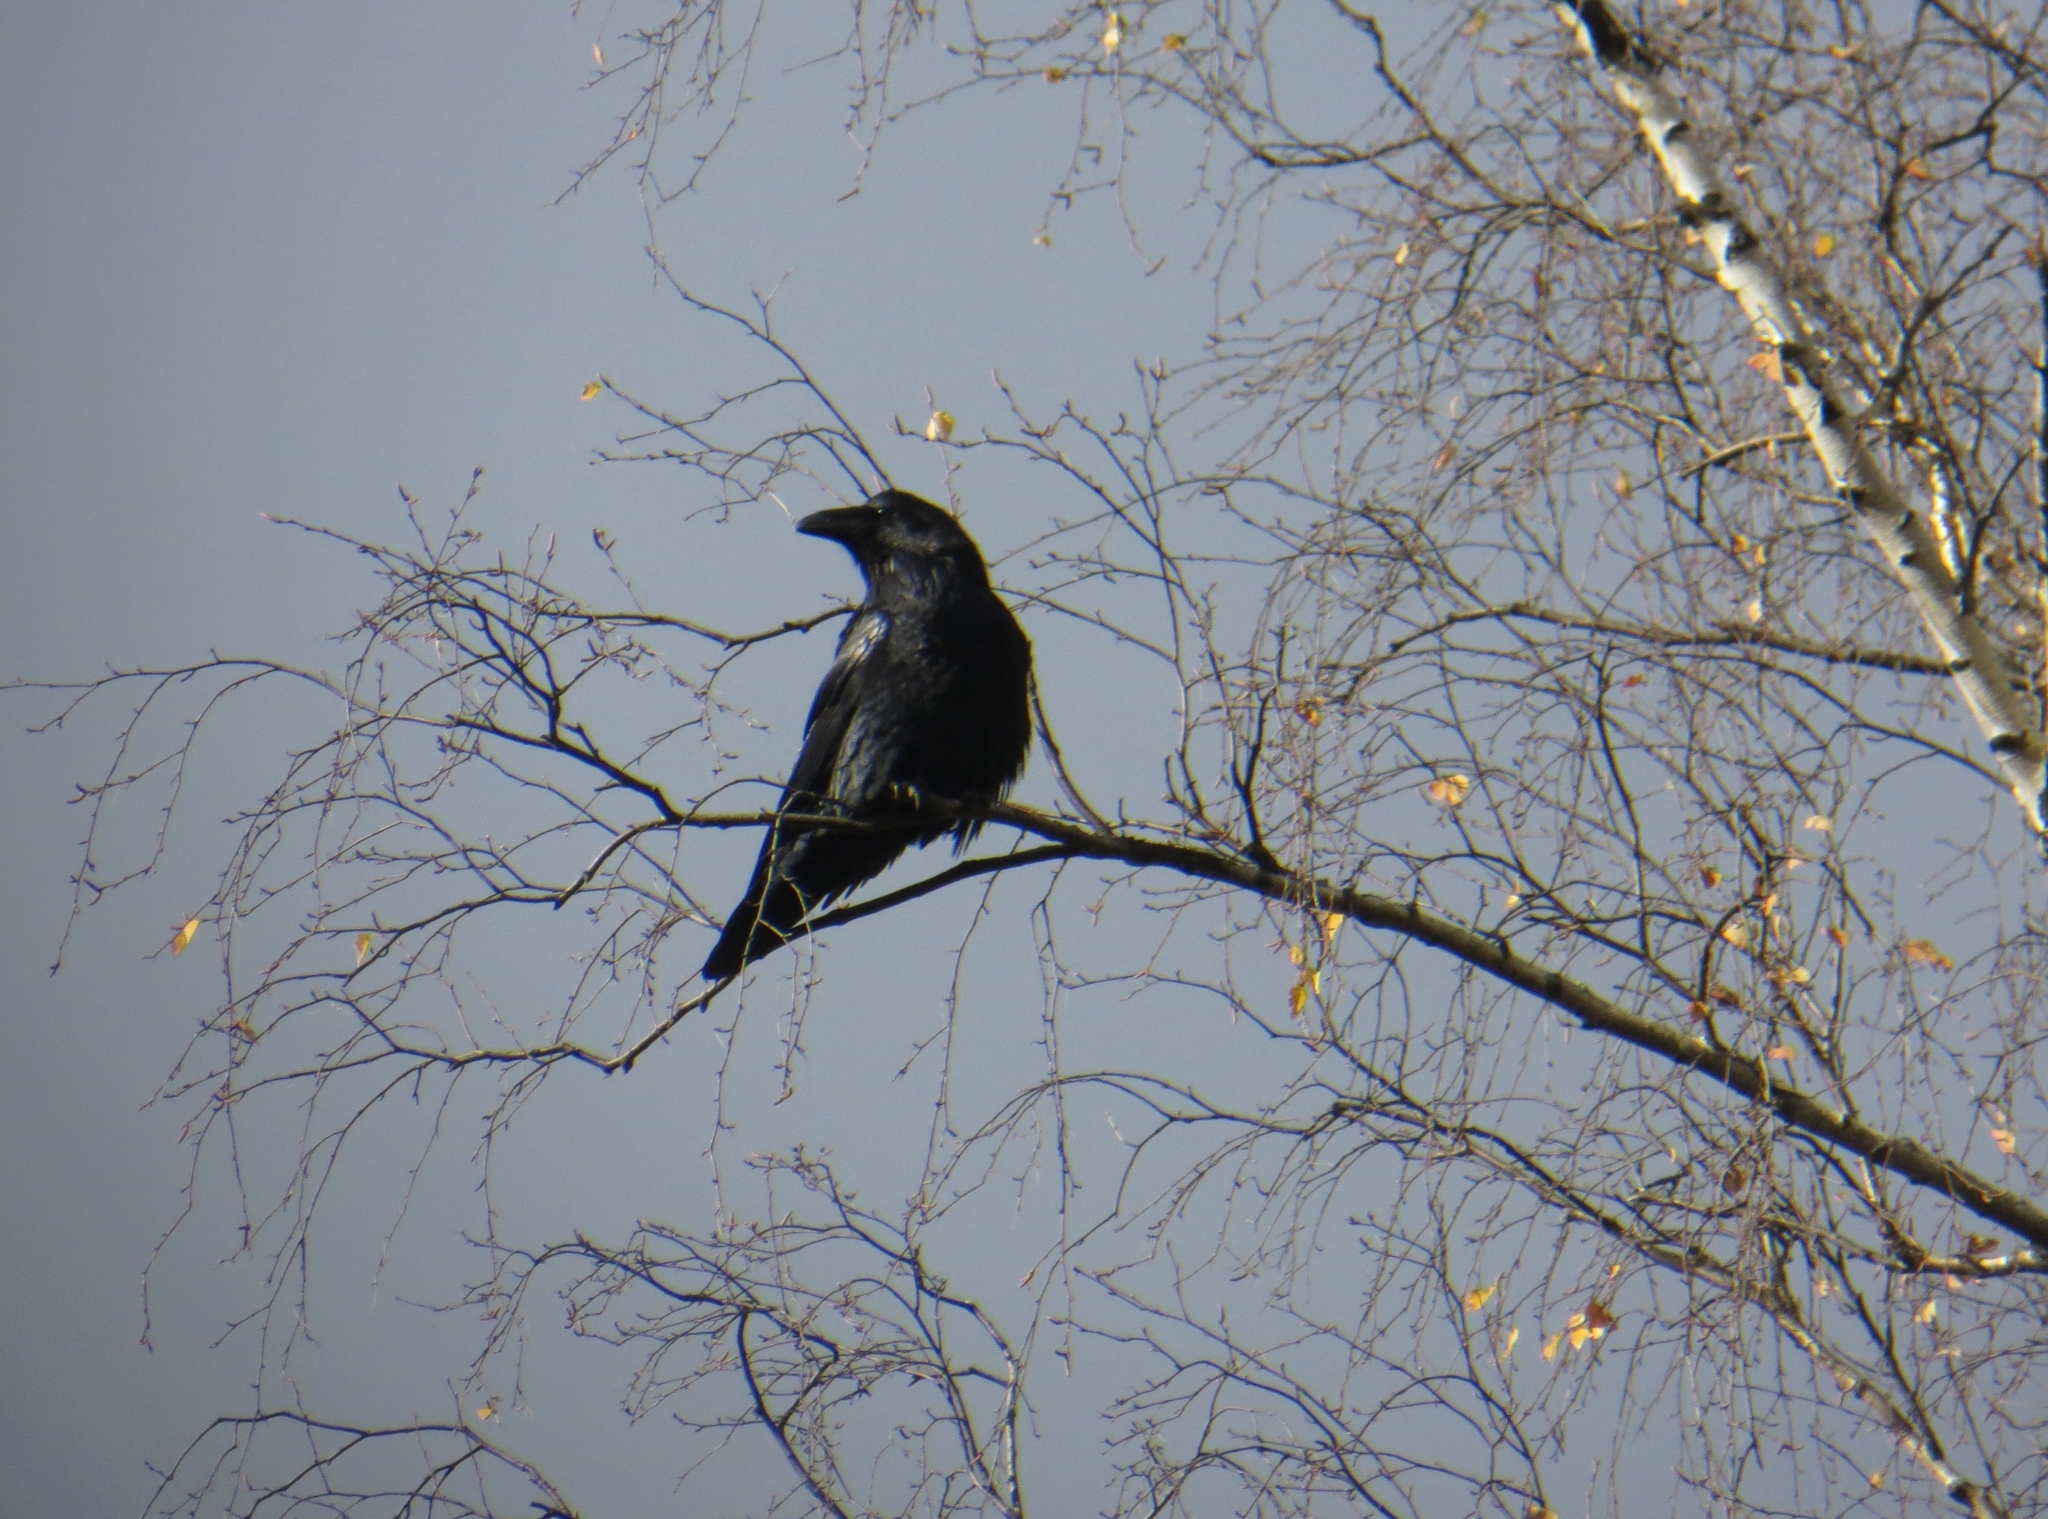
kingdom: Animalia
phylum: Chordata
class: Aves
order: Passeriformes
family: Corvidae
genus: Corvus
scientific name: Corvus corax
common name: Common raven
